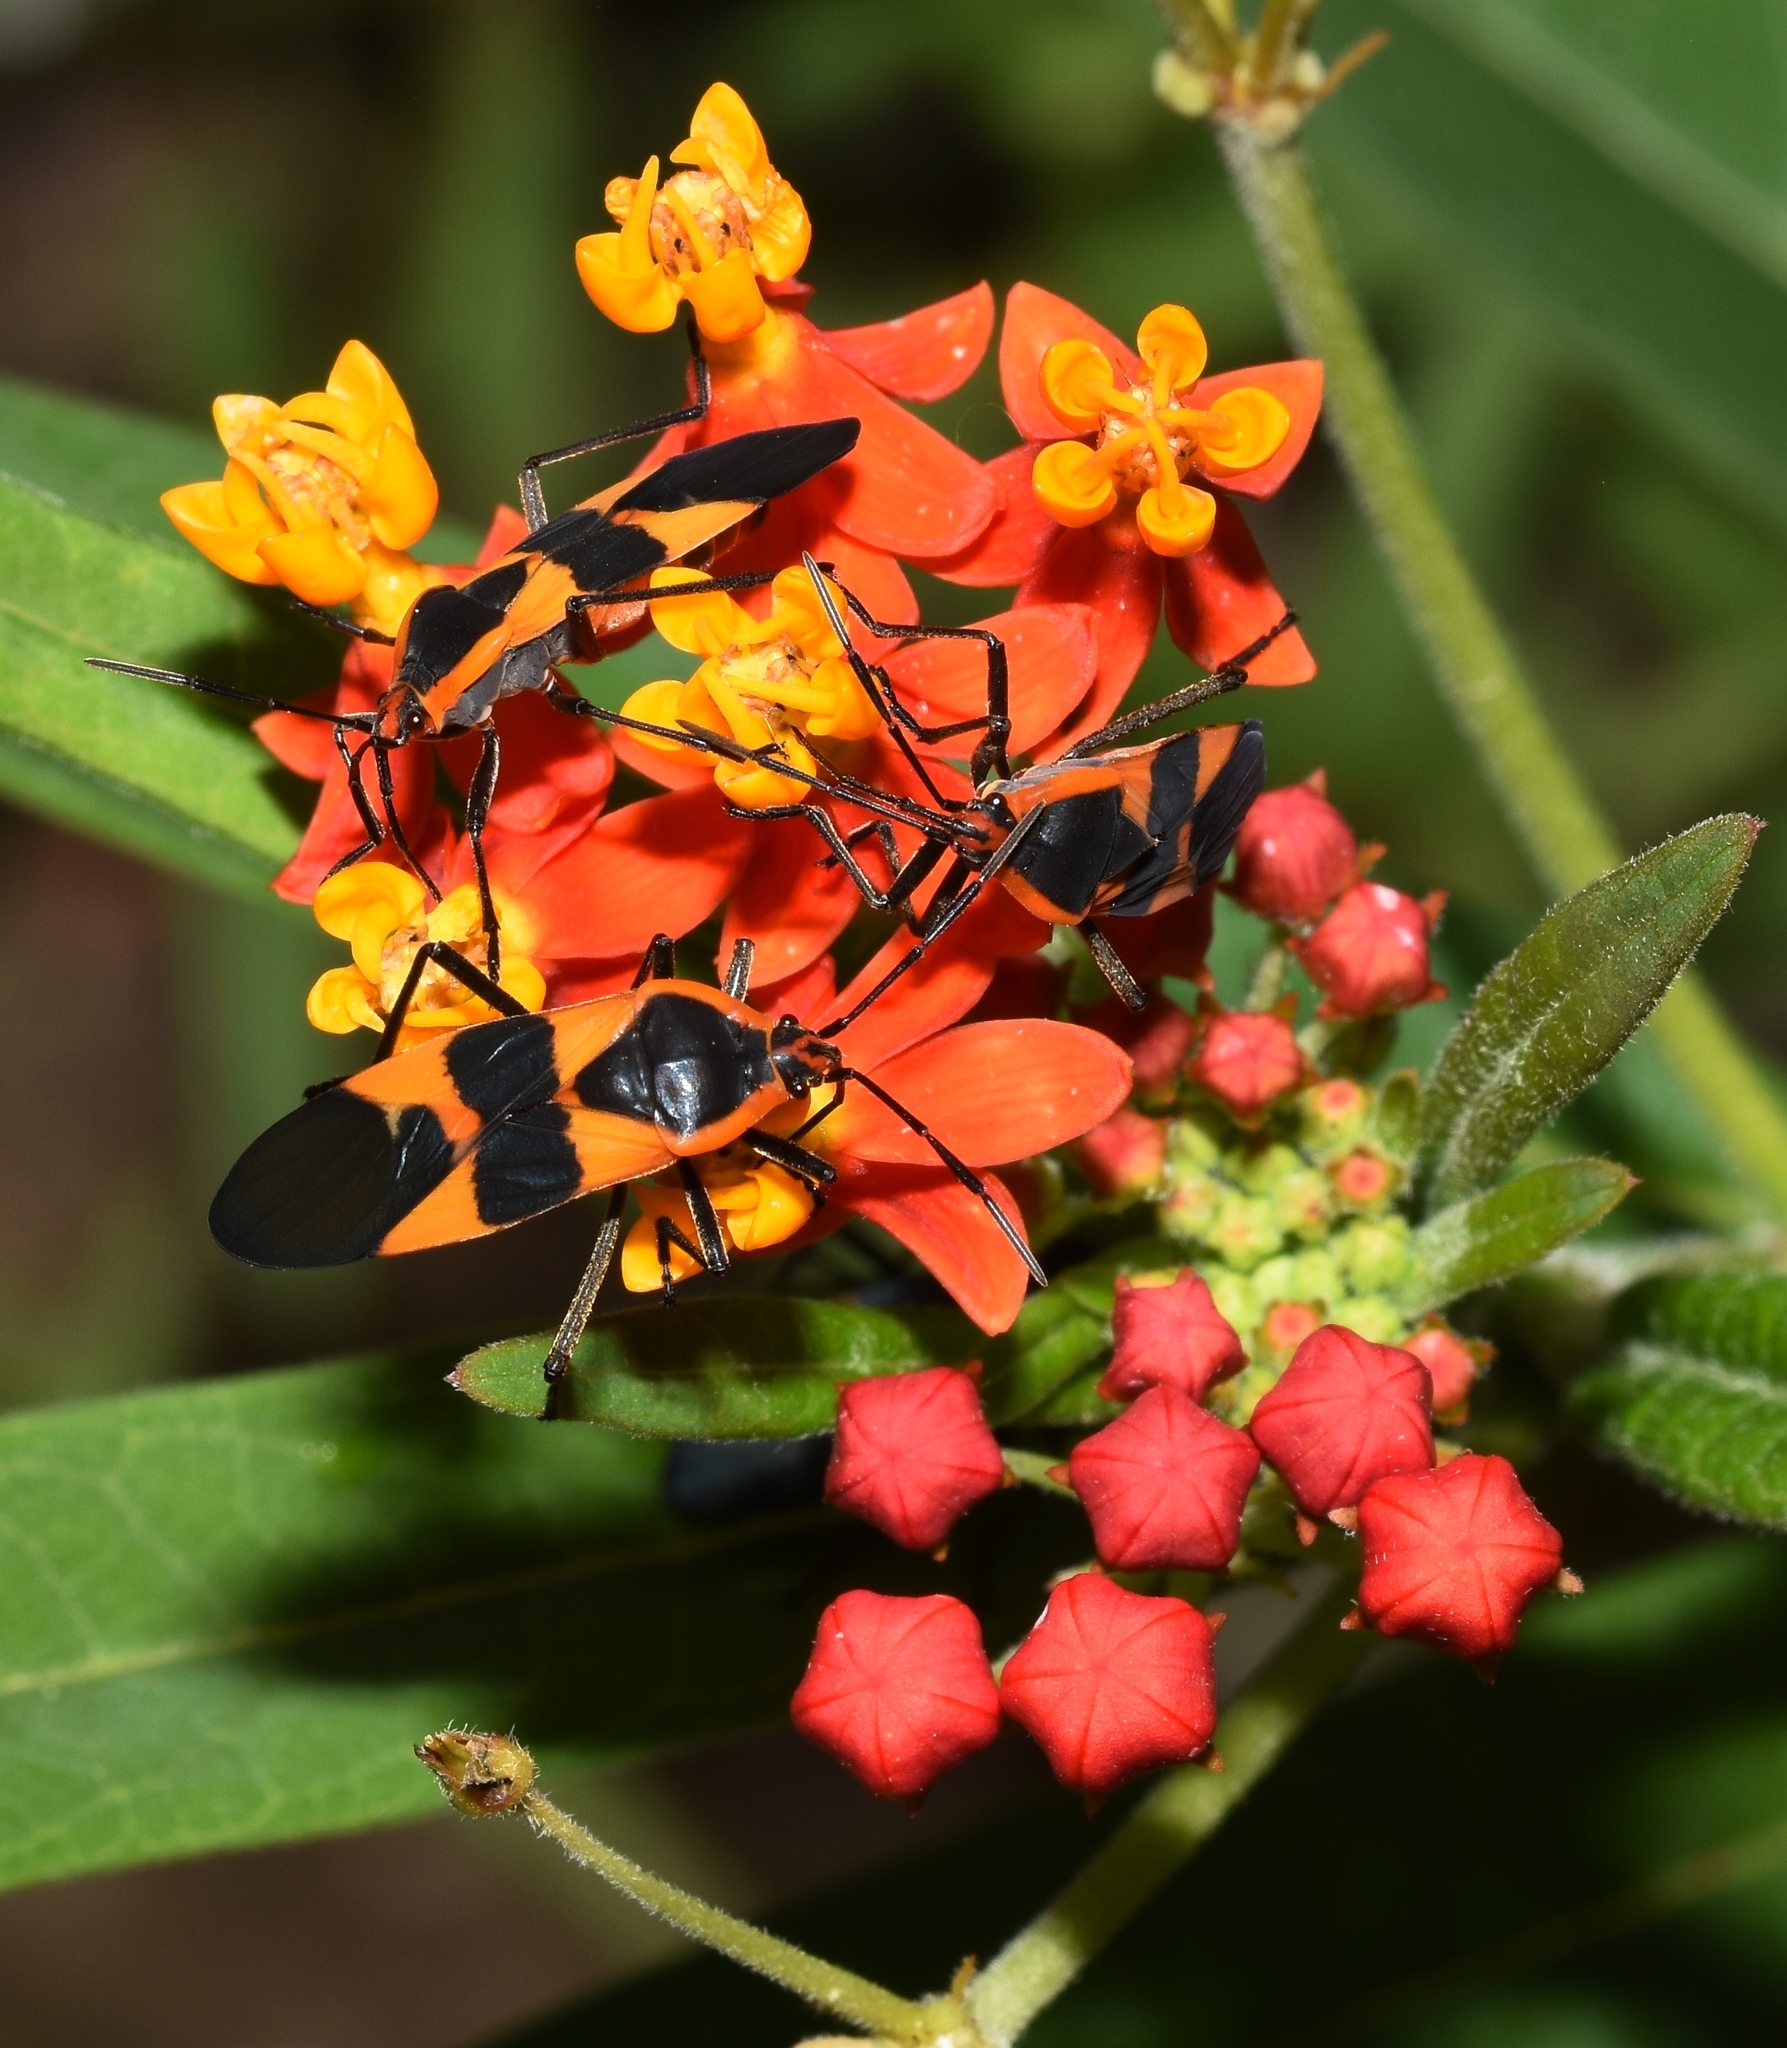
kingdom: Animalia
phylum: Arthropoda
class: Insecta
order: Hemiptera
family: Lygaeidae
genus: Oncopeltus
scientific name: Oncopeltus fasciatus
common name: Large milkweed bug
